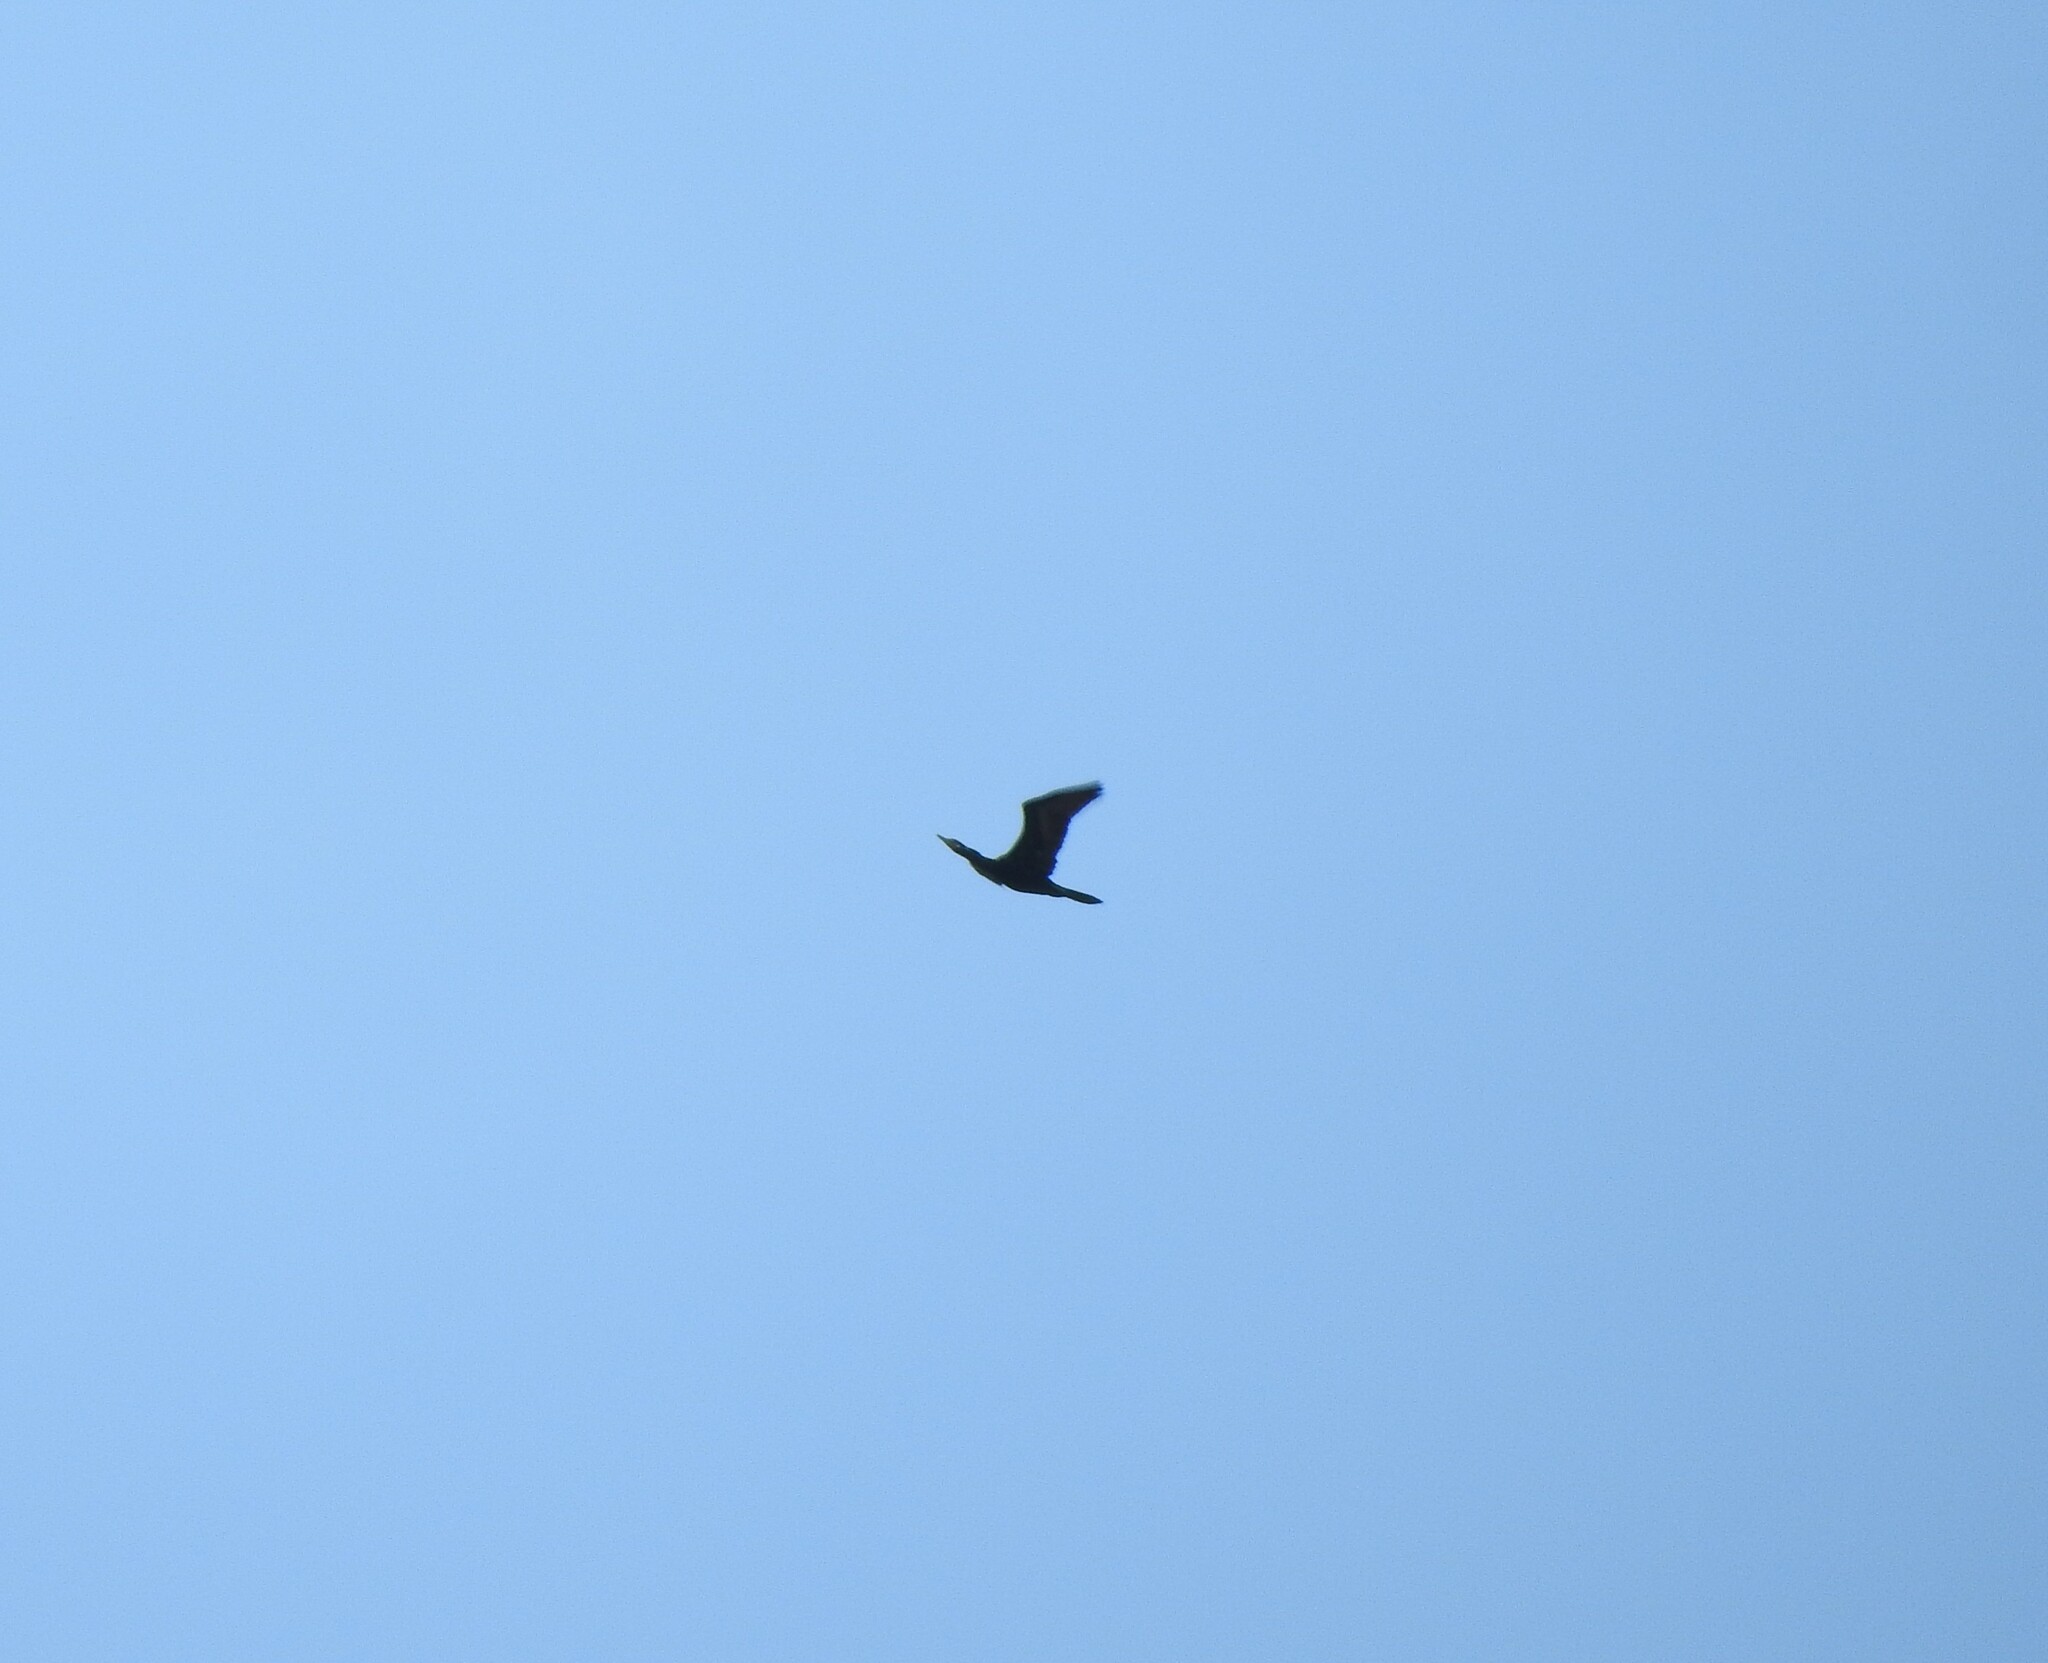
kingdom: Animalia
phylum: Chordata
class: Aves
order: Suliformes
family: Phalacrocoracidae
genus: Phalacrocorax
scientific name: Phalacrocorax brasilianus
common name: Neotropic cormorant
